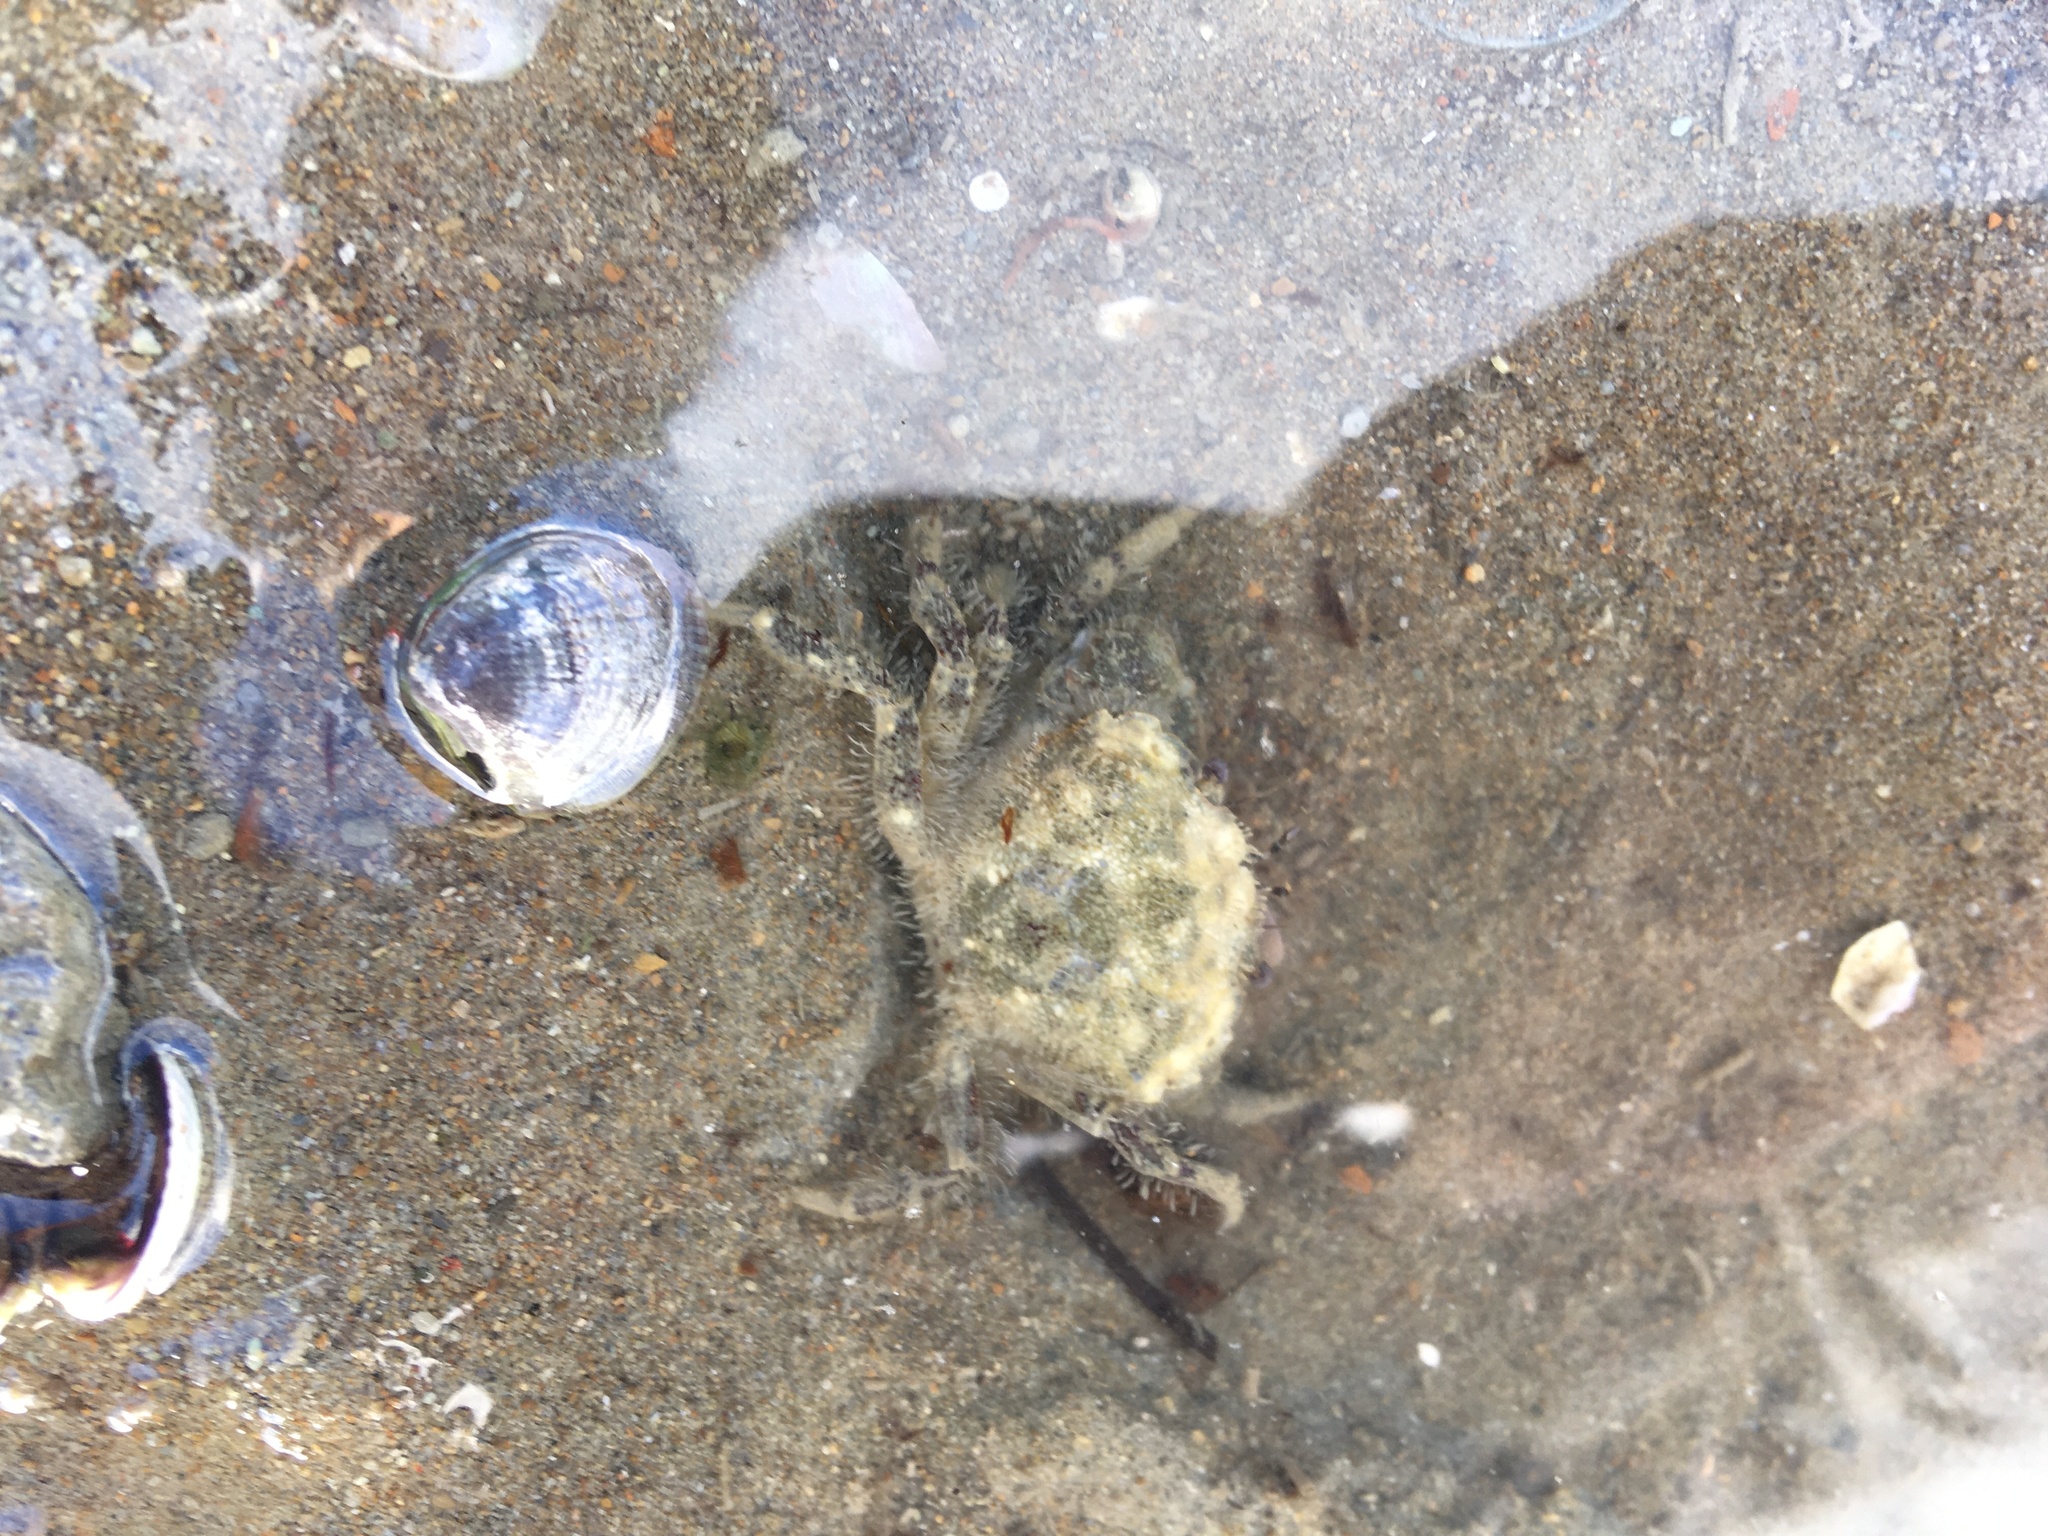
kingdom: Animalia
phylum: Arthropoda
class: Malacostraca
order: Decapoda
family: Pilumnidae
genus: Pilumnopeus
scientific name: Pilumnopeus serratifrons
